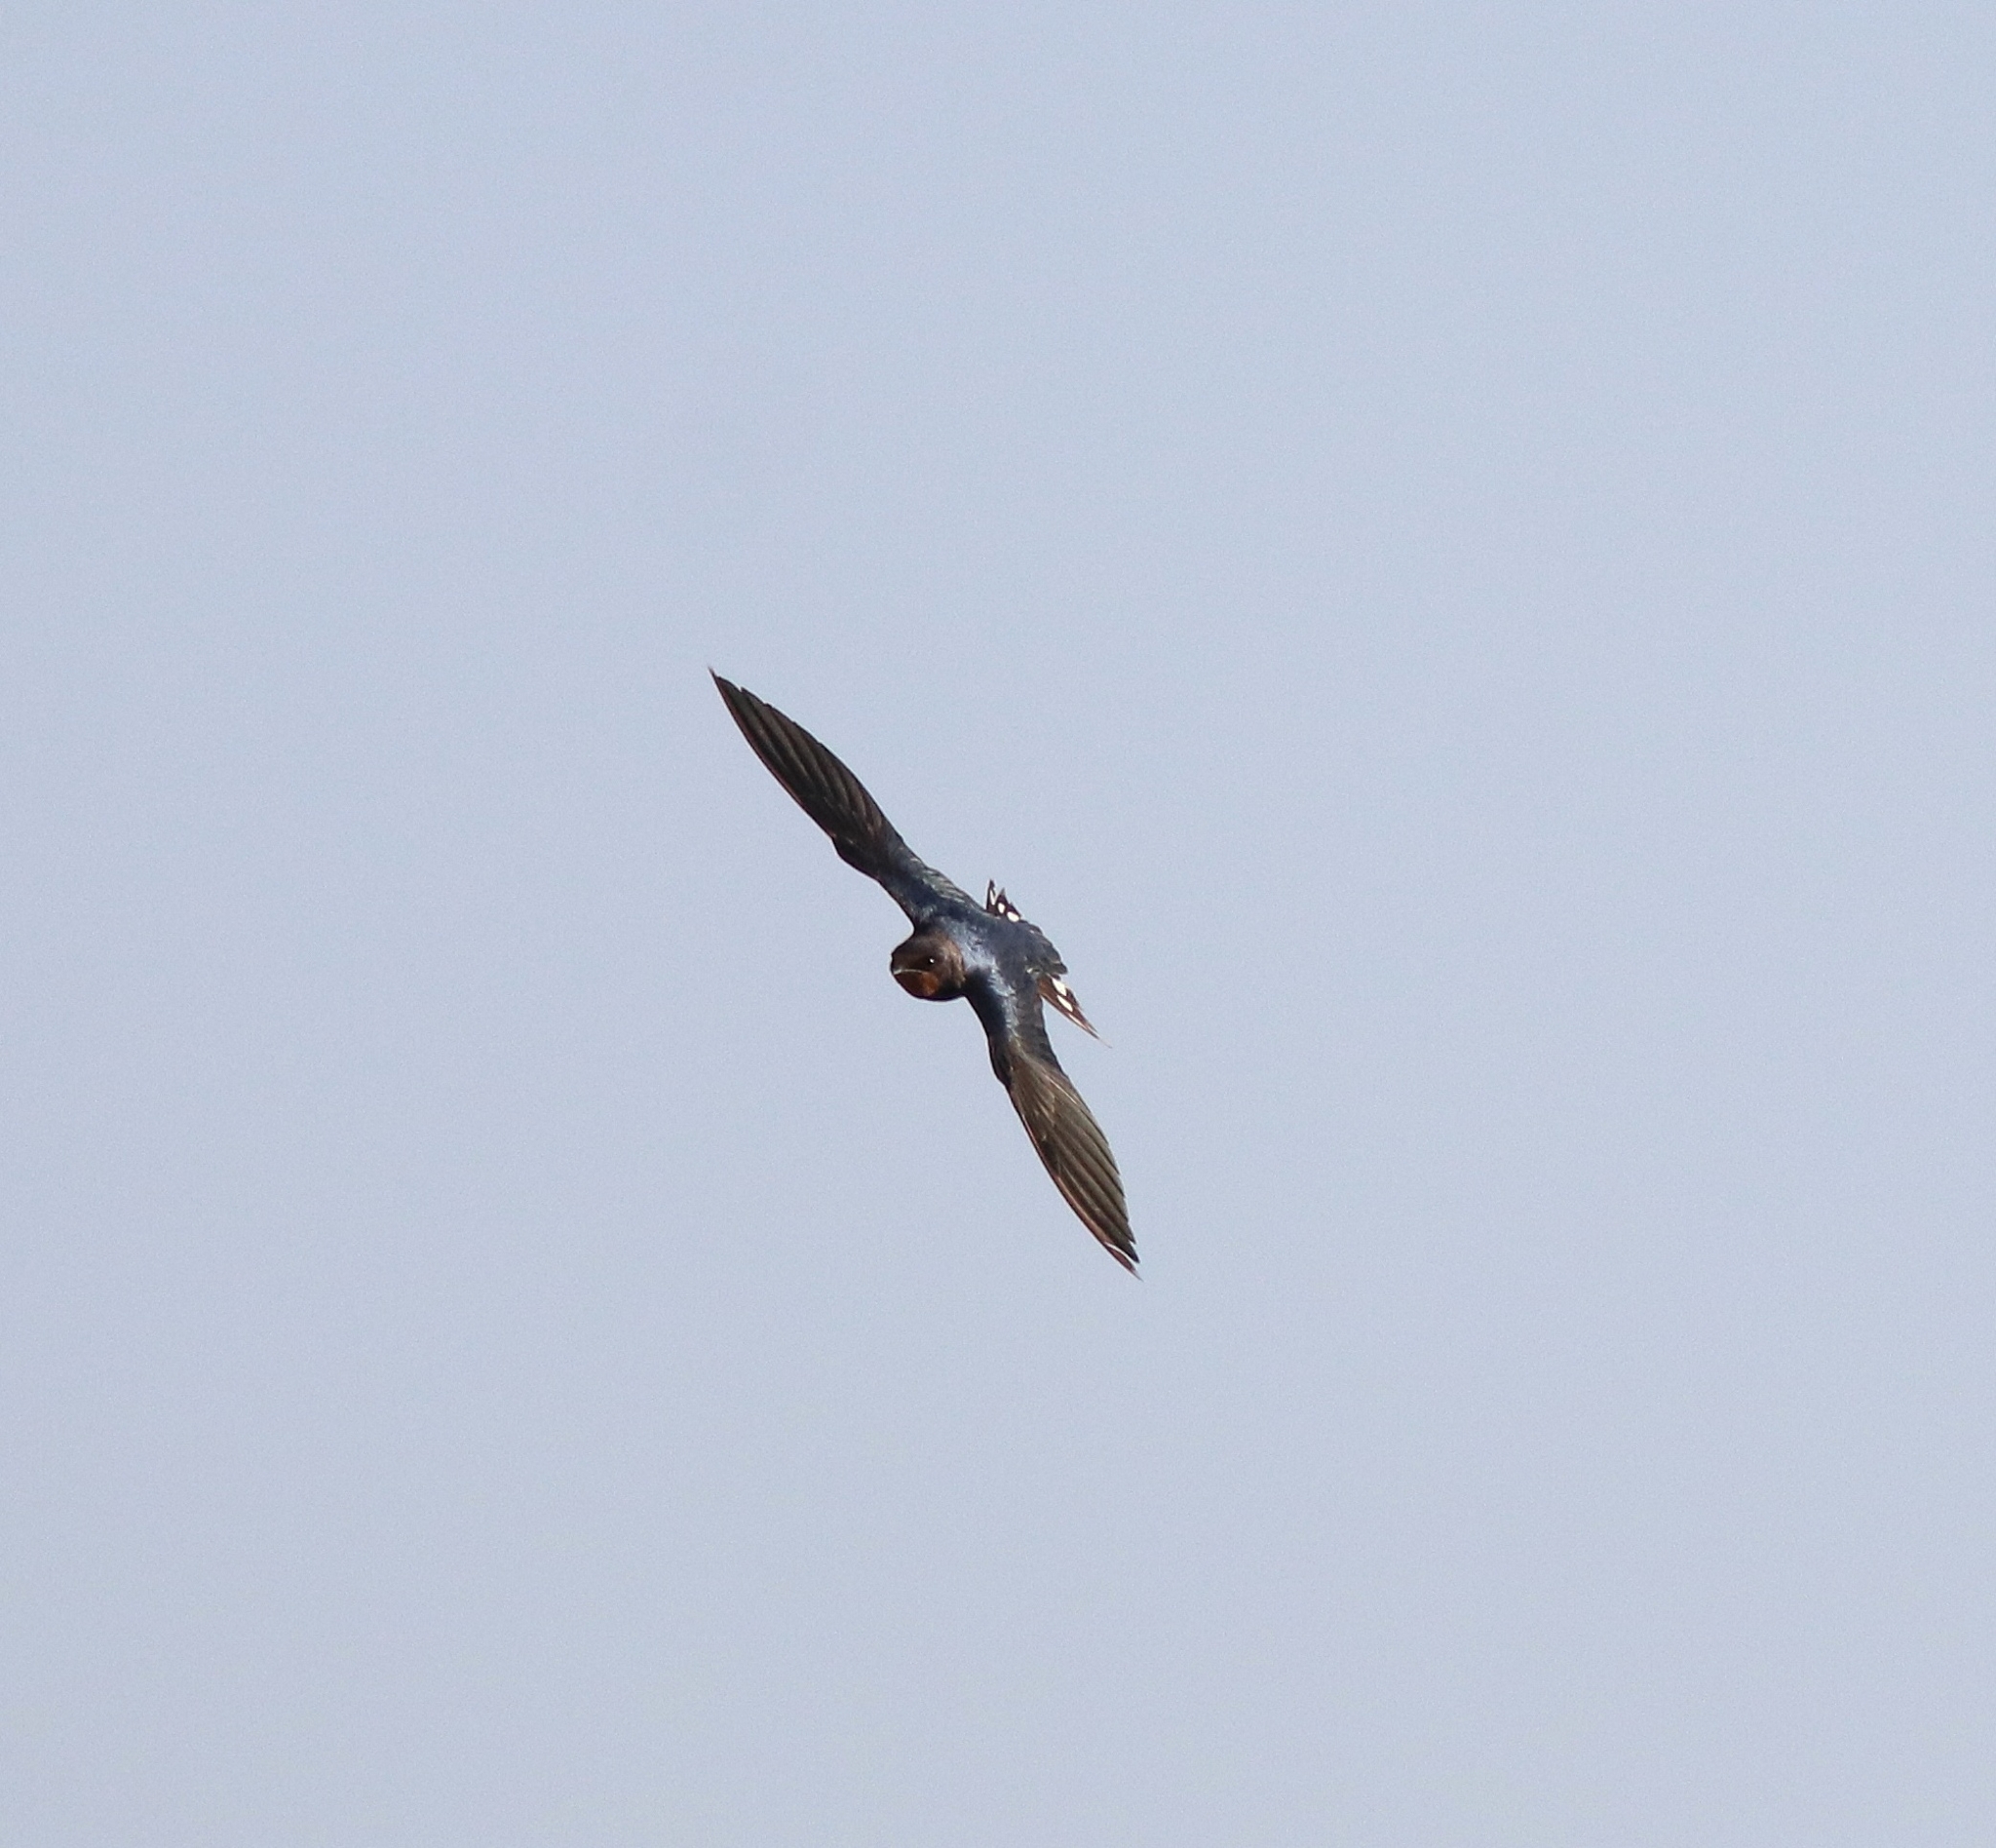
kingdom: Animalia
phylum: Chordata
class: Aves
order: Passeriformes
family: Hirundinidae
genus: Hirundo
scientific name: Hirundo rustica
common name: Barn swallow
